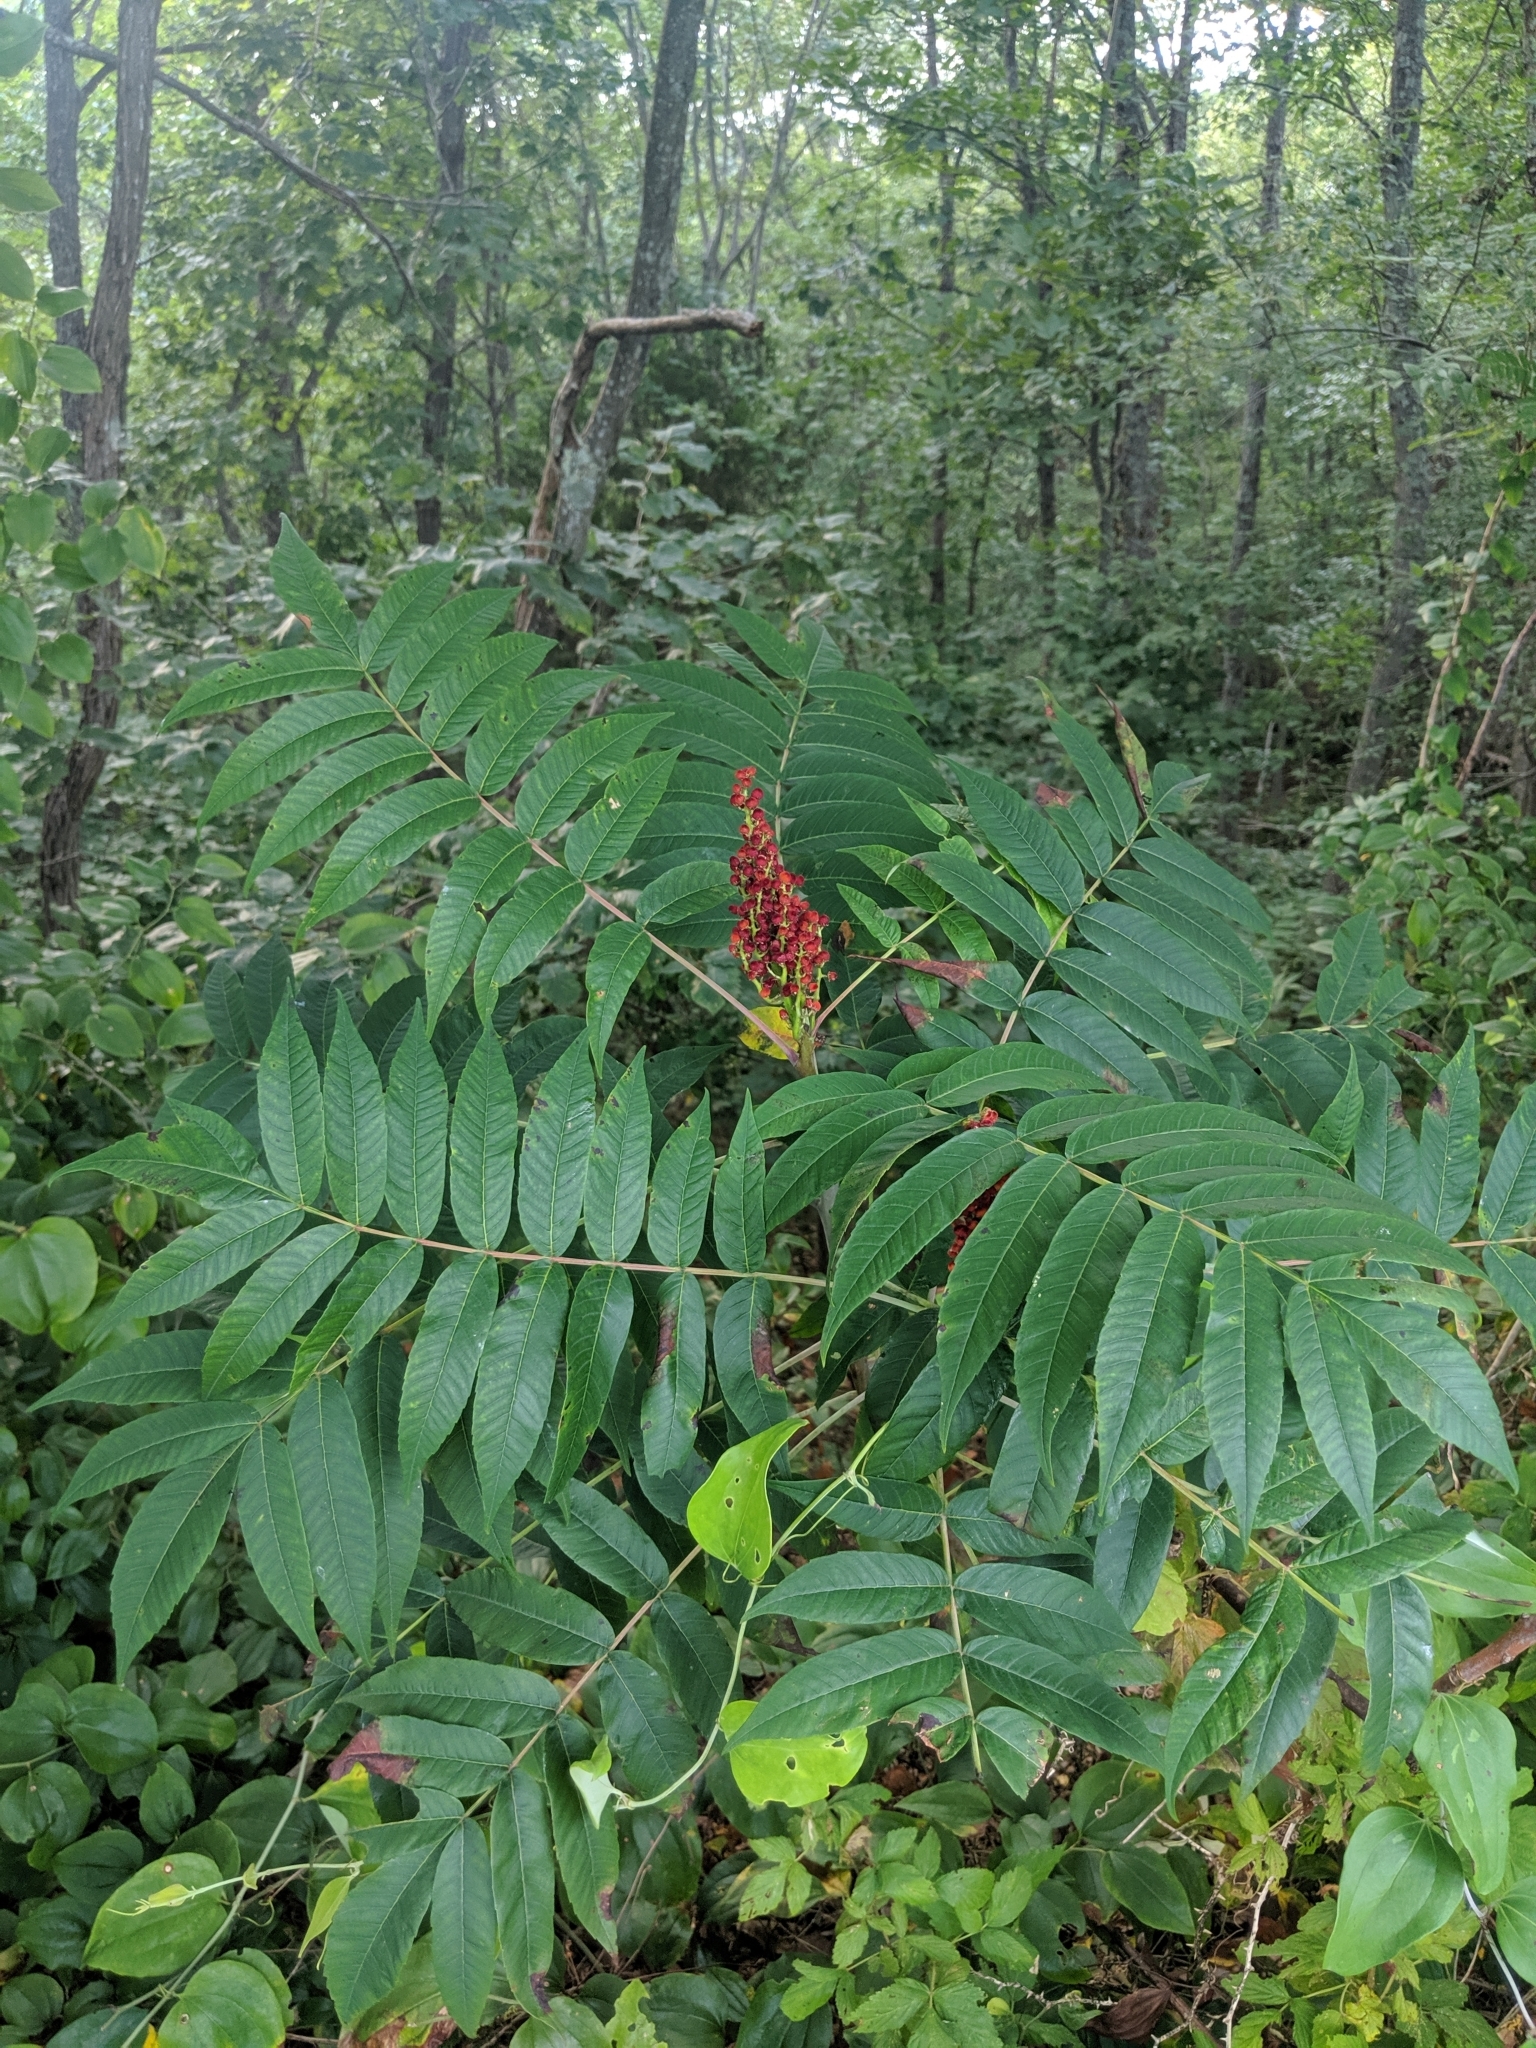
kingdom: Plantae
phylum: Tracheophyta
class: Magnoliopsida
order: Sapindales
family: Anacardiaceae
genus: Rhus
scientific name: Rhus glabra
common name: Scarlet sumac
